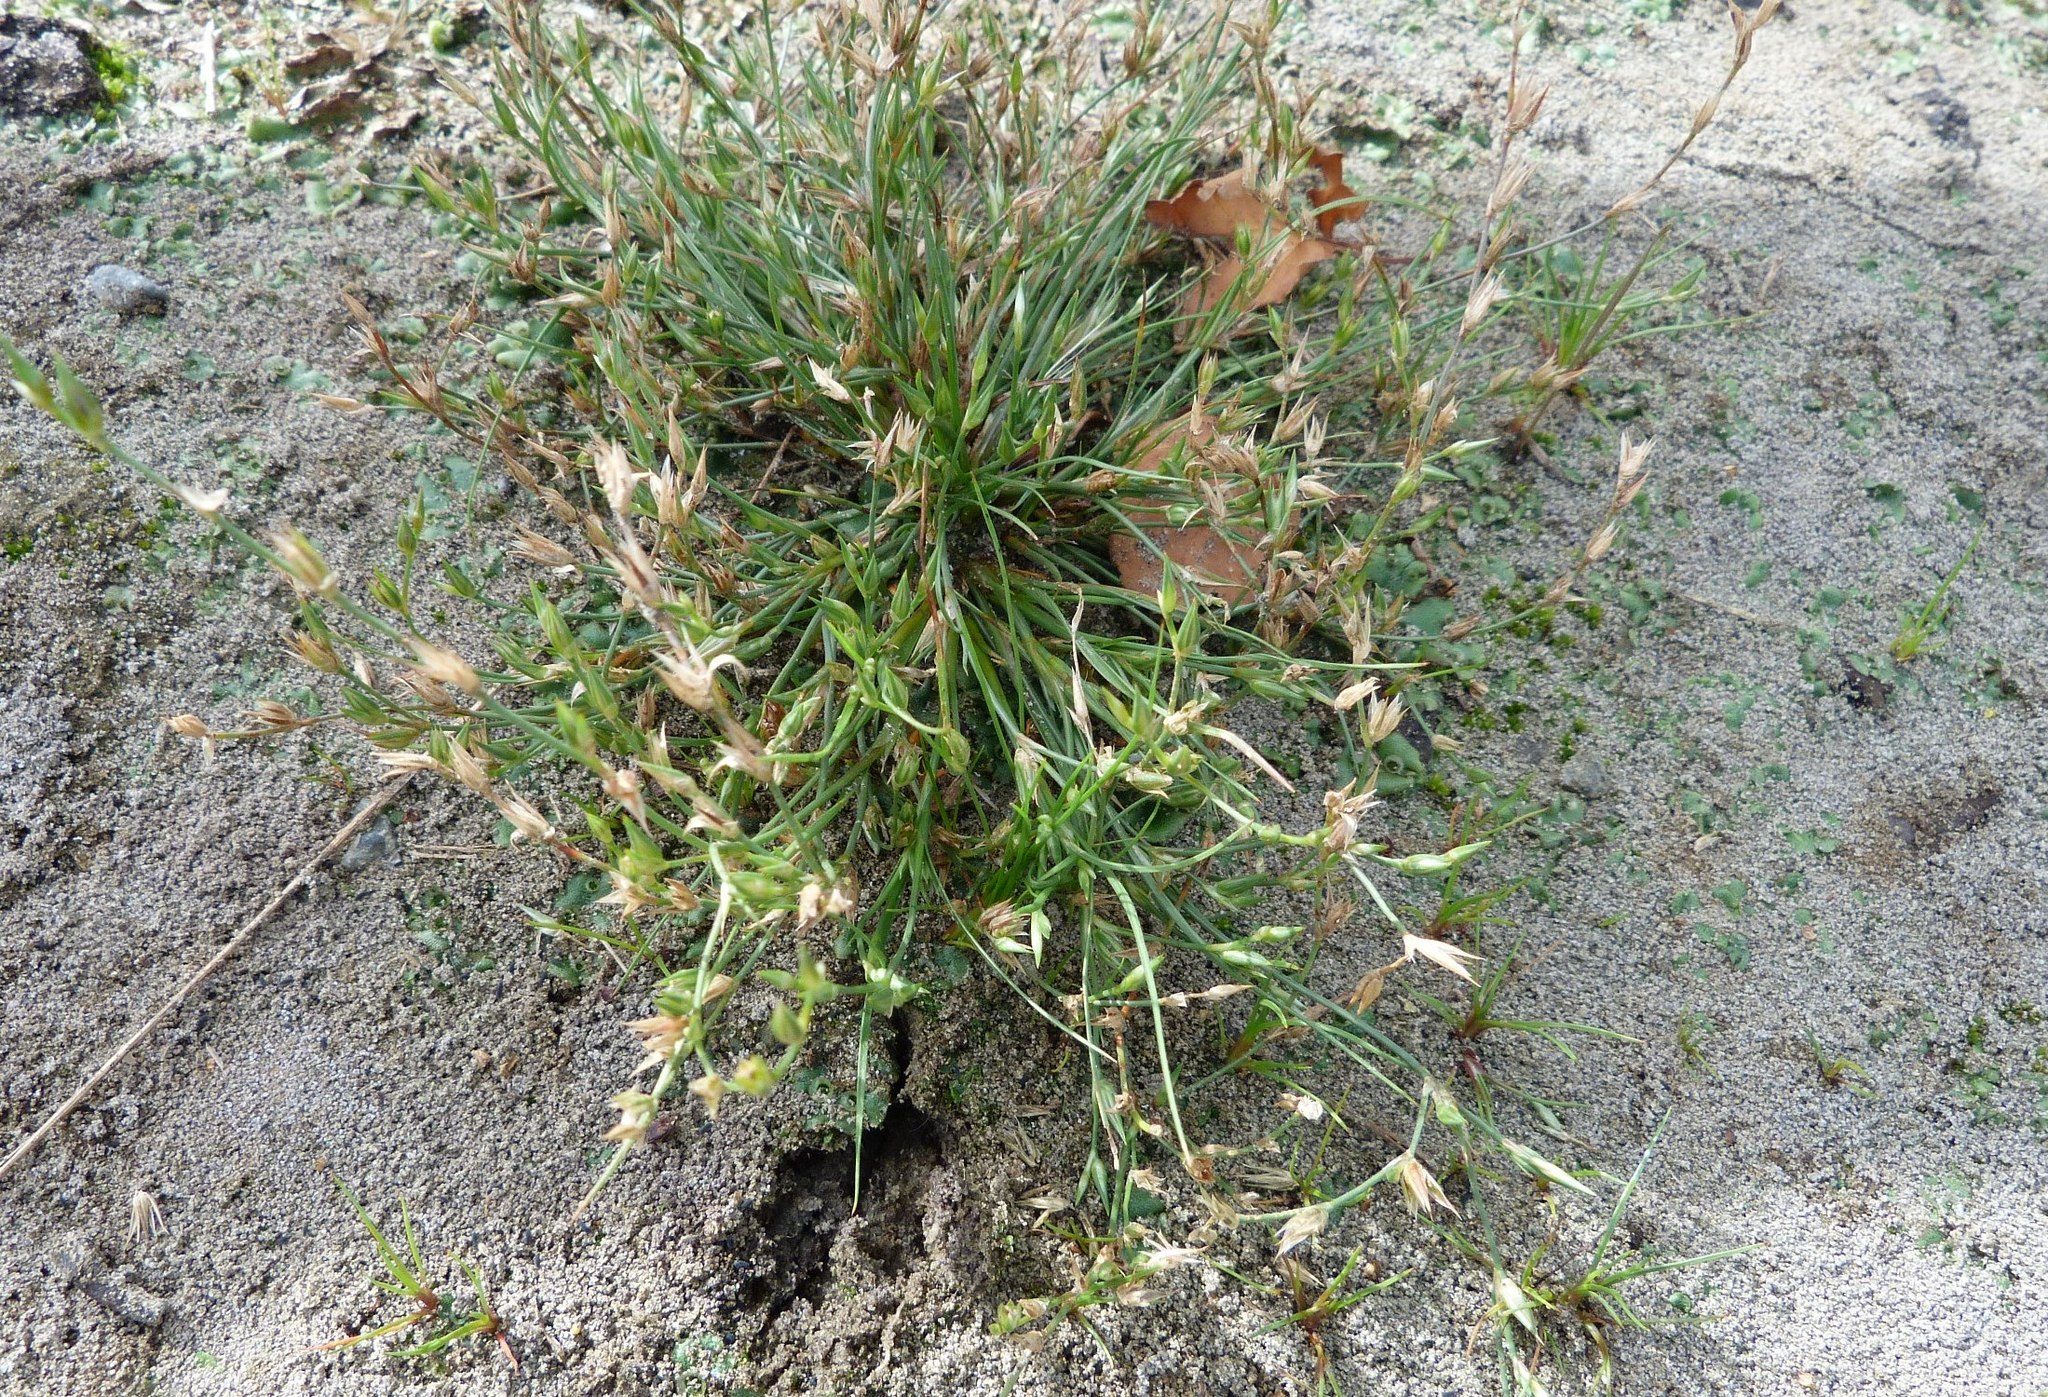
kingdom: Plantae
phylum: Tracheophyta
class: Liliopsida
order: Poales
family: Juncaceae
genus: Juncus
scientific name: Juncus bufonius
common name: Toad rush
